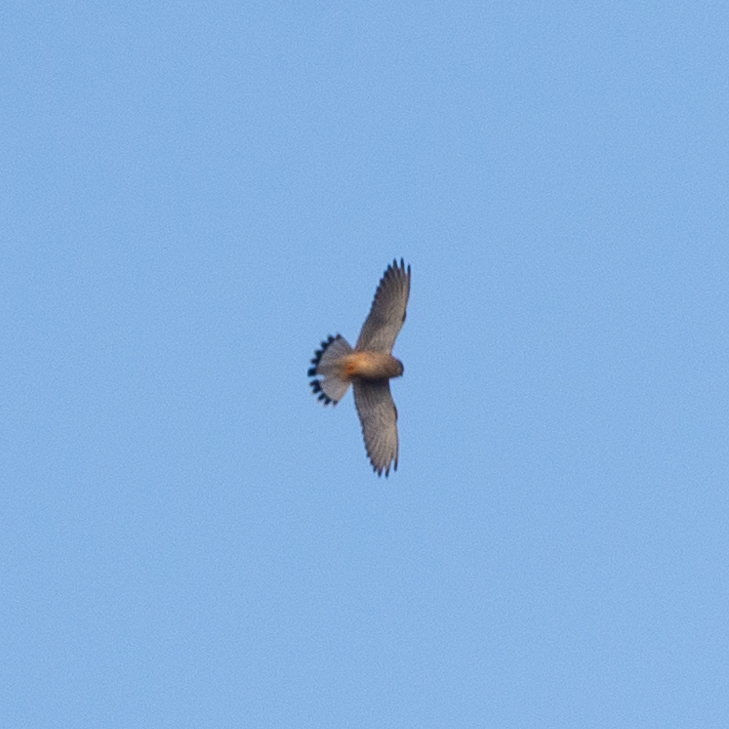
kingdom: Animalia
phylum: Chordata
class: Aves
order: Falconiformes
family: Falconidae
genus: Falco
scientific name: Falco tinnunculus
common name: Common kestrel
